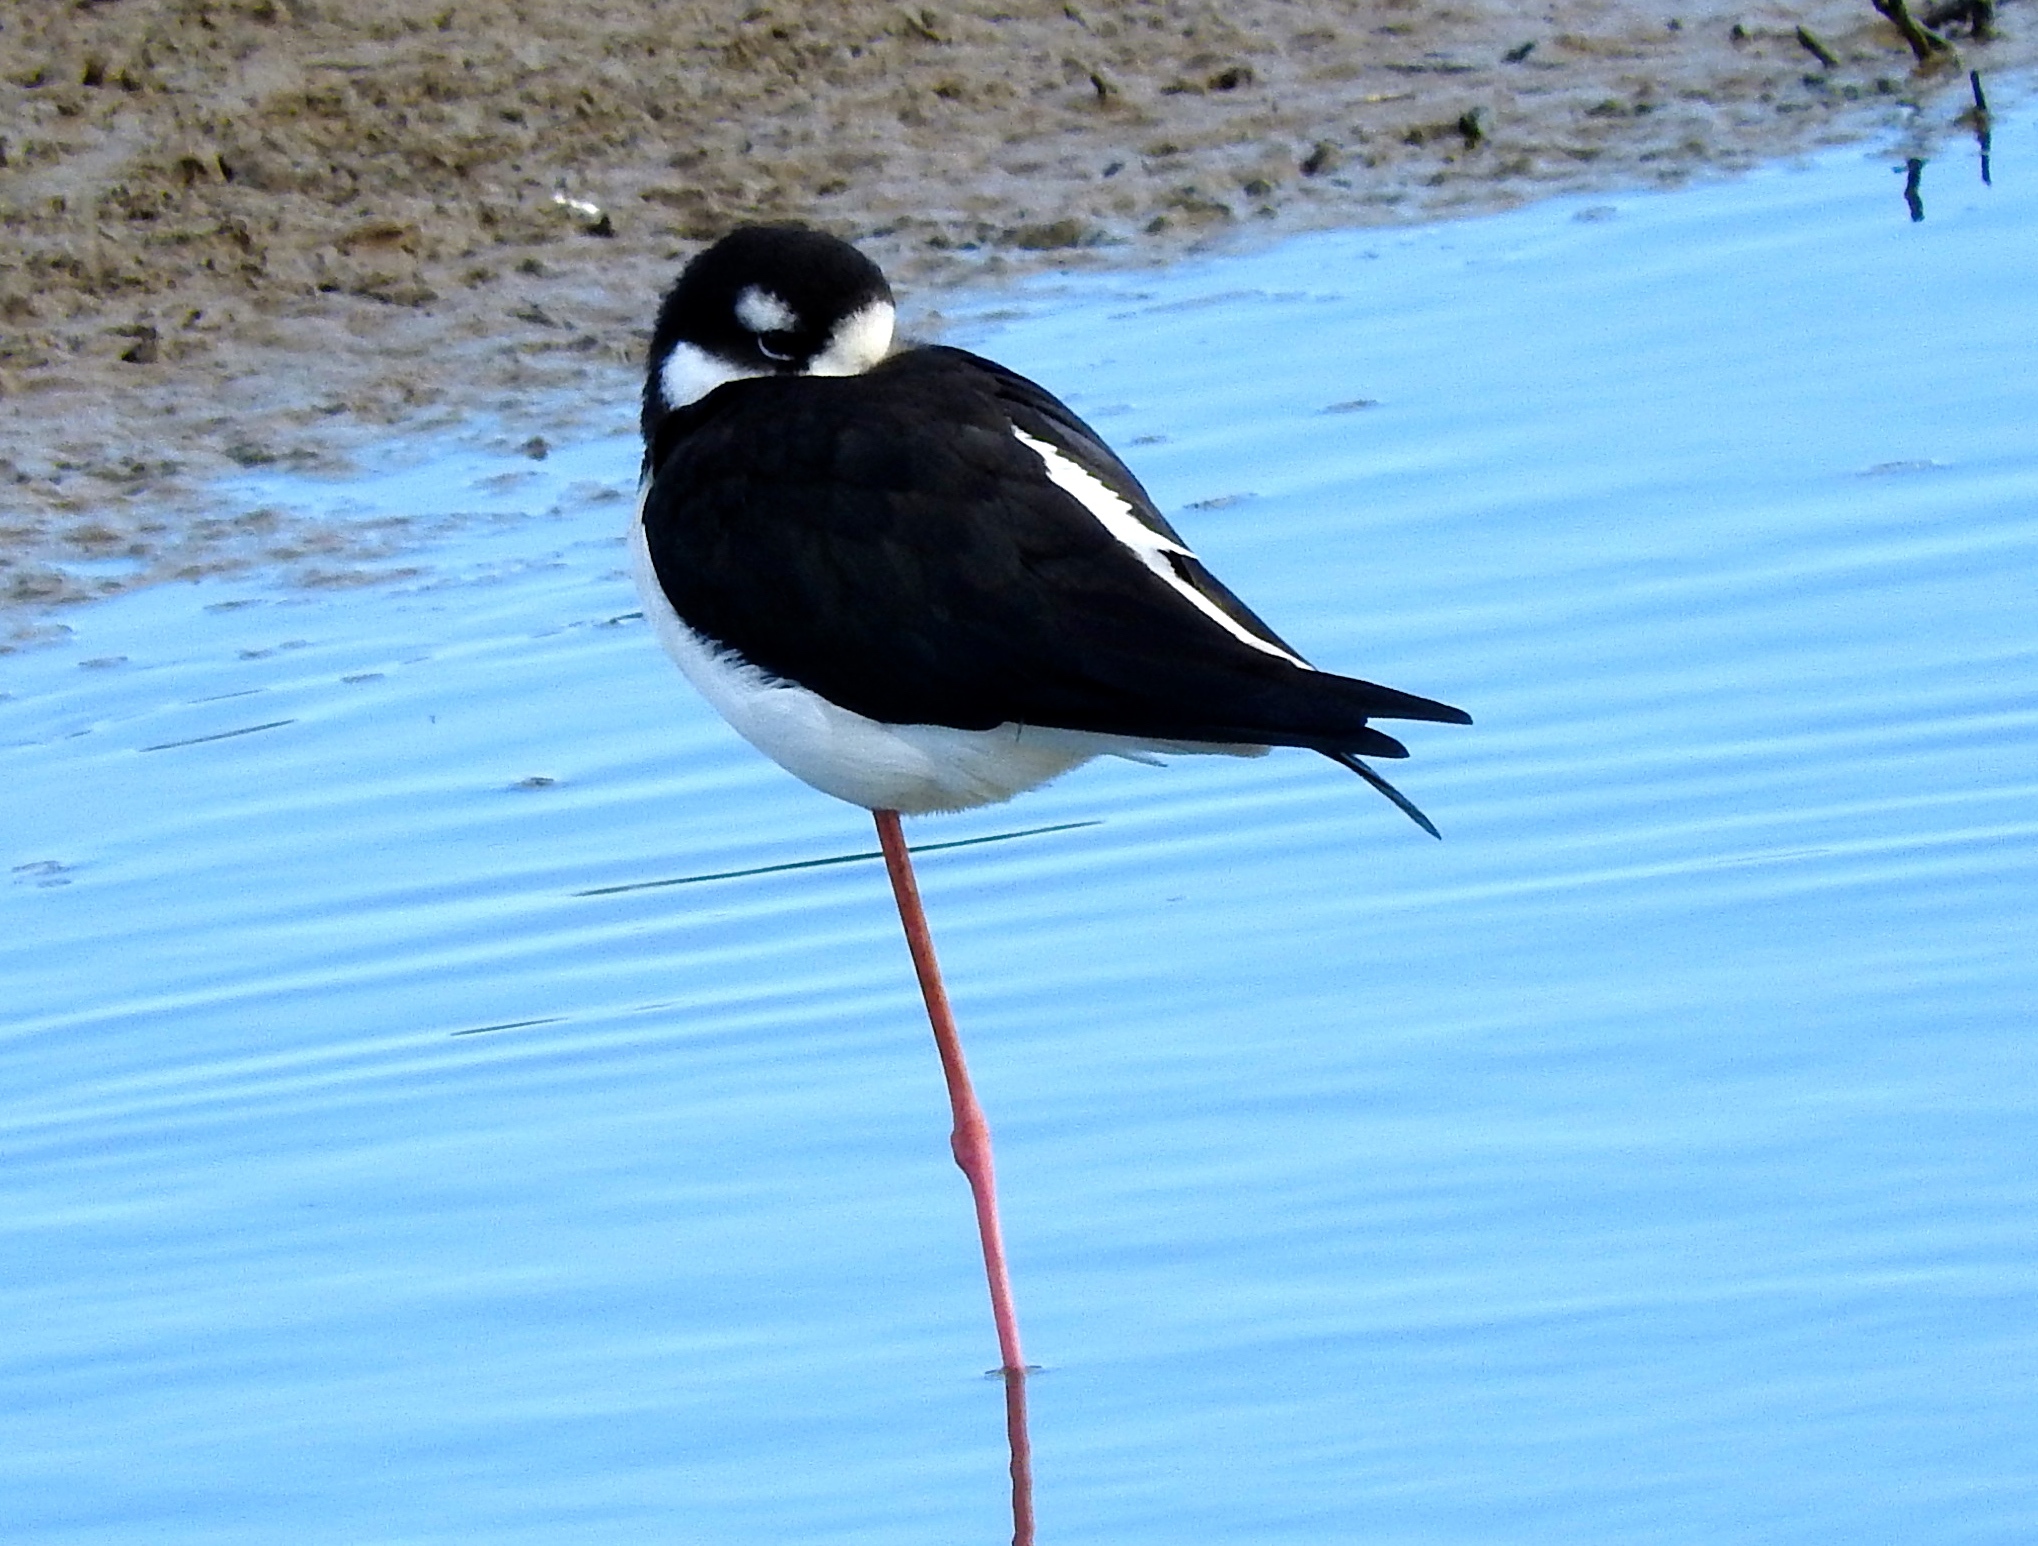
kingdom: Animalia
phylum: Chordata
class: Aves
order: Charadriiformes
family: Recurvirostridae
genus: Himantopus
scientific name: Himantopus mexicanus
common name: Black-necked stilt
